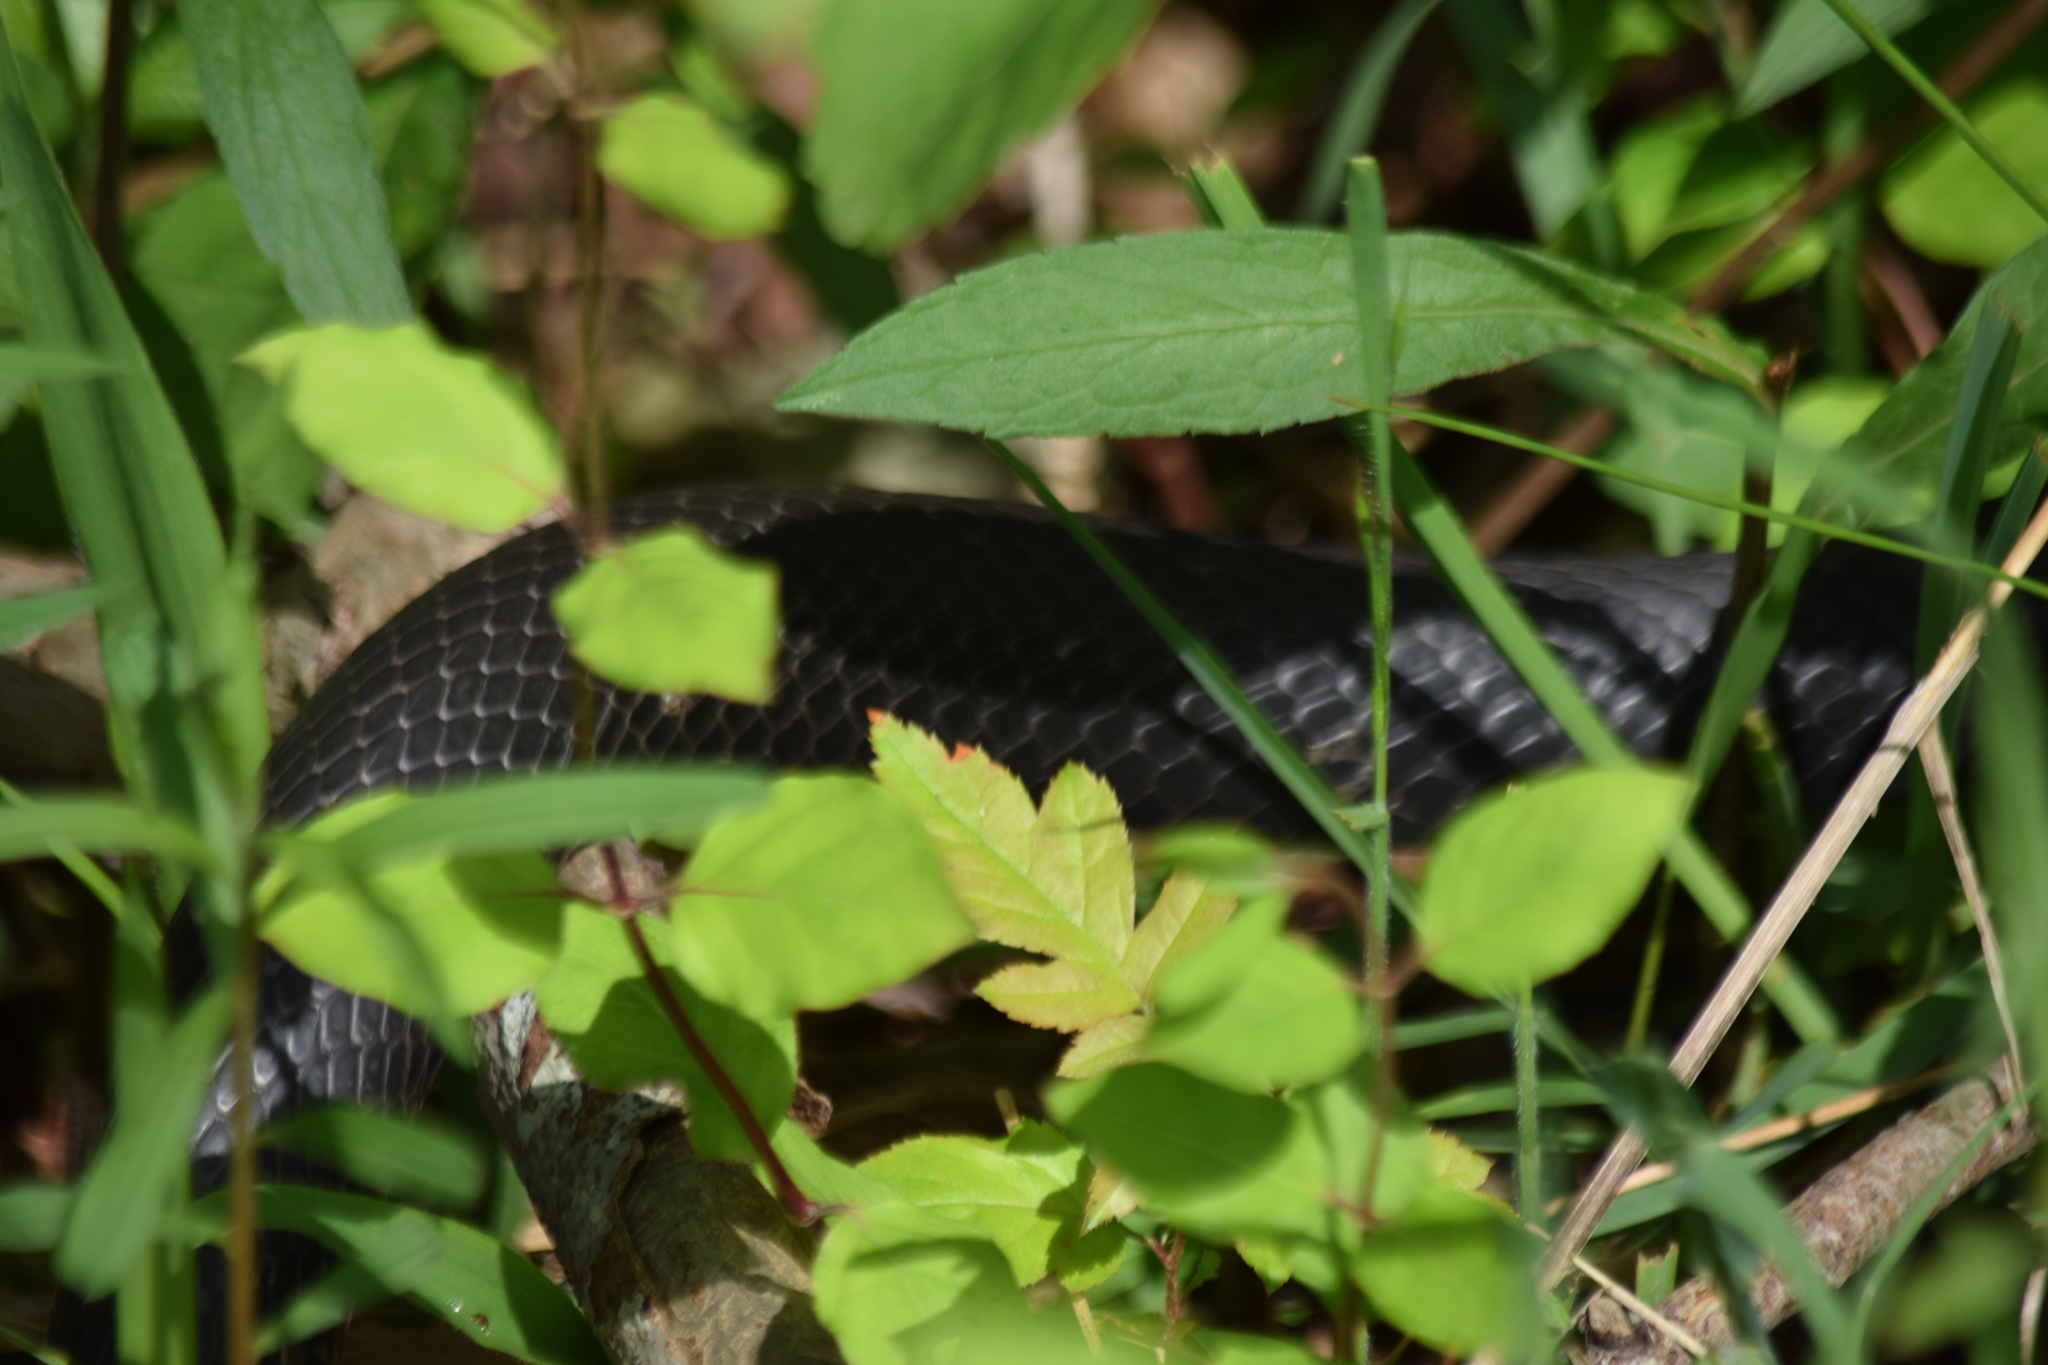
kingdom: Animalia
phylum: Chordata
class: Squamata
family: Colubridae
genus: Coluber
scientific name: Coluber constrictor
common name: Eastern racer
